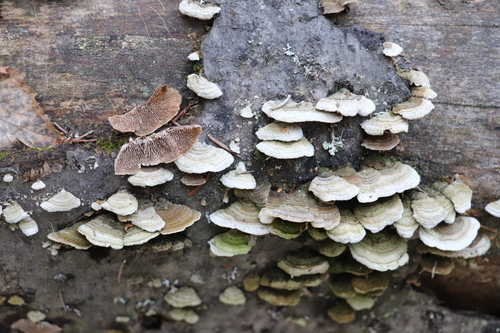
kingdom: Fungi
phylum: Basidiomycota
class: Agaricomycetes
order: Hymenochaetales
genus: Trichaptum
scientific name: Trichaptum fuscoviolaceum
